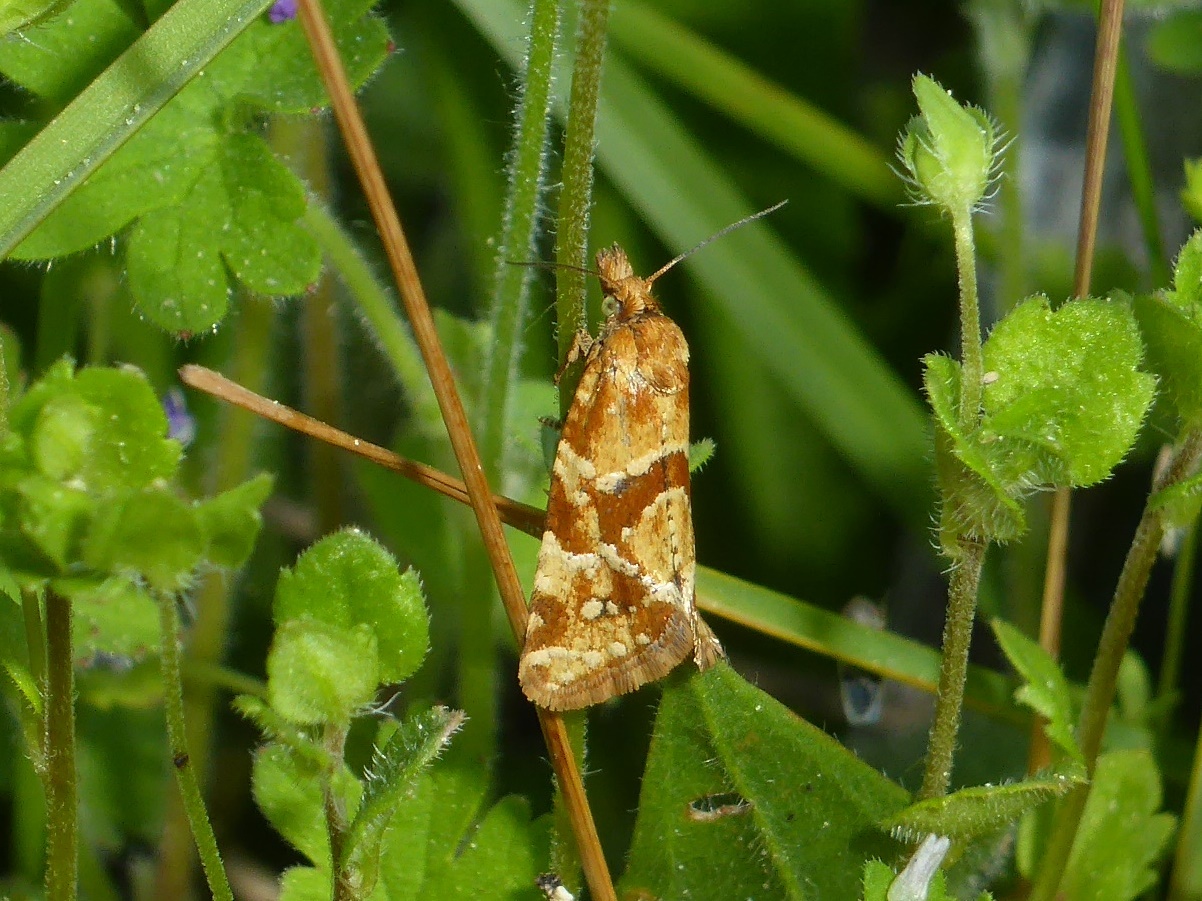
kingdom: Animalia
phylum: Arthropoda
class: Insecta
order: Lepidoptera
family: Tortricidae
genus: Aethes
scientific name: Aethes hartmanniana
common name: Scabious conch
